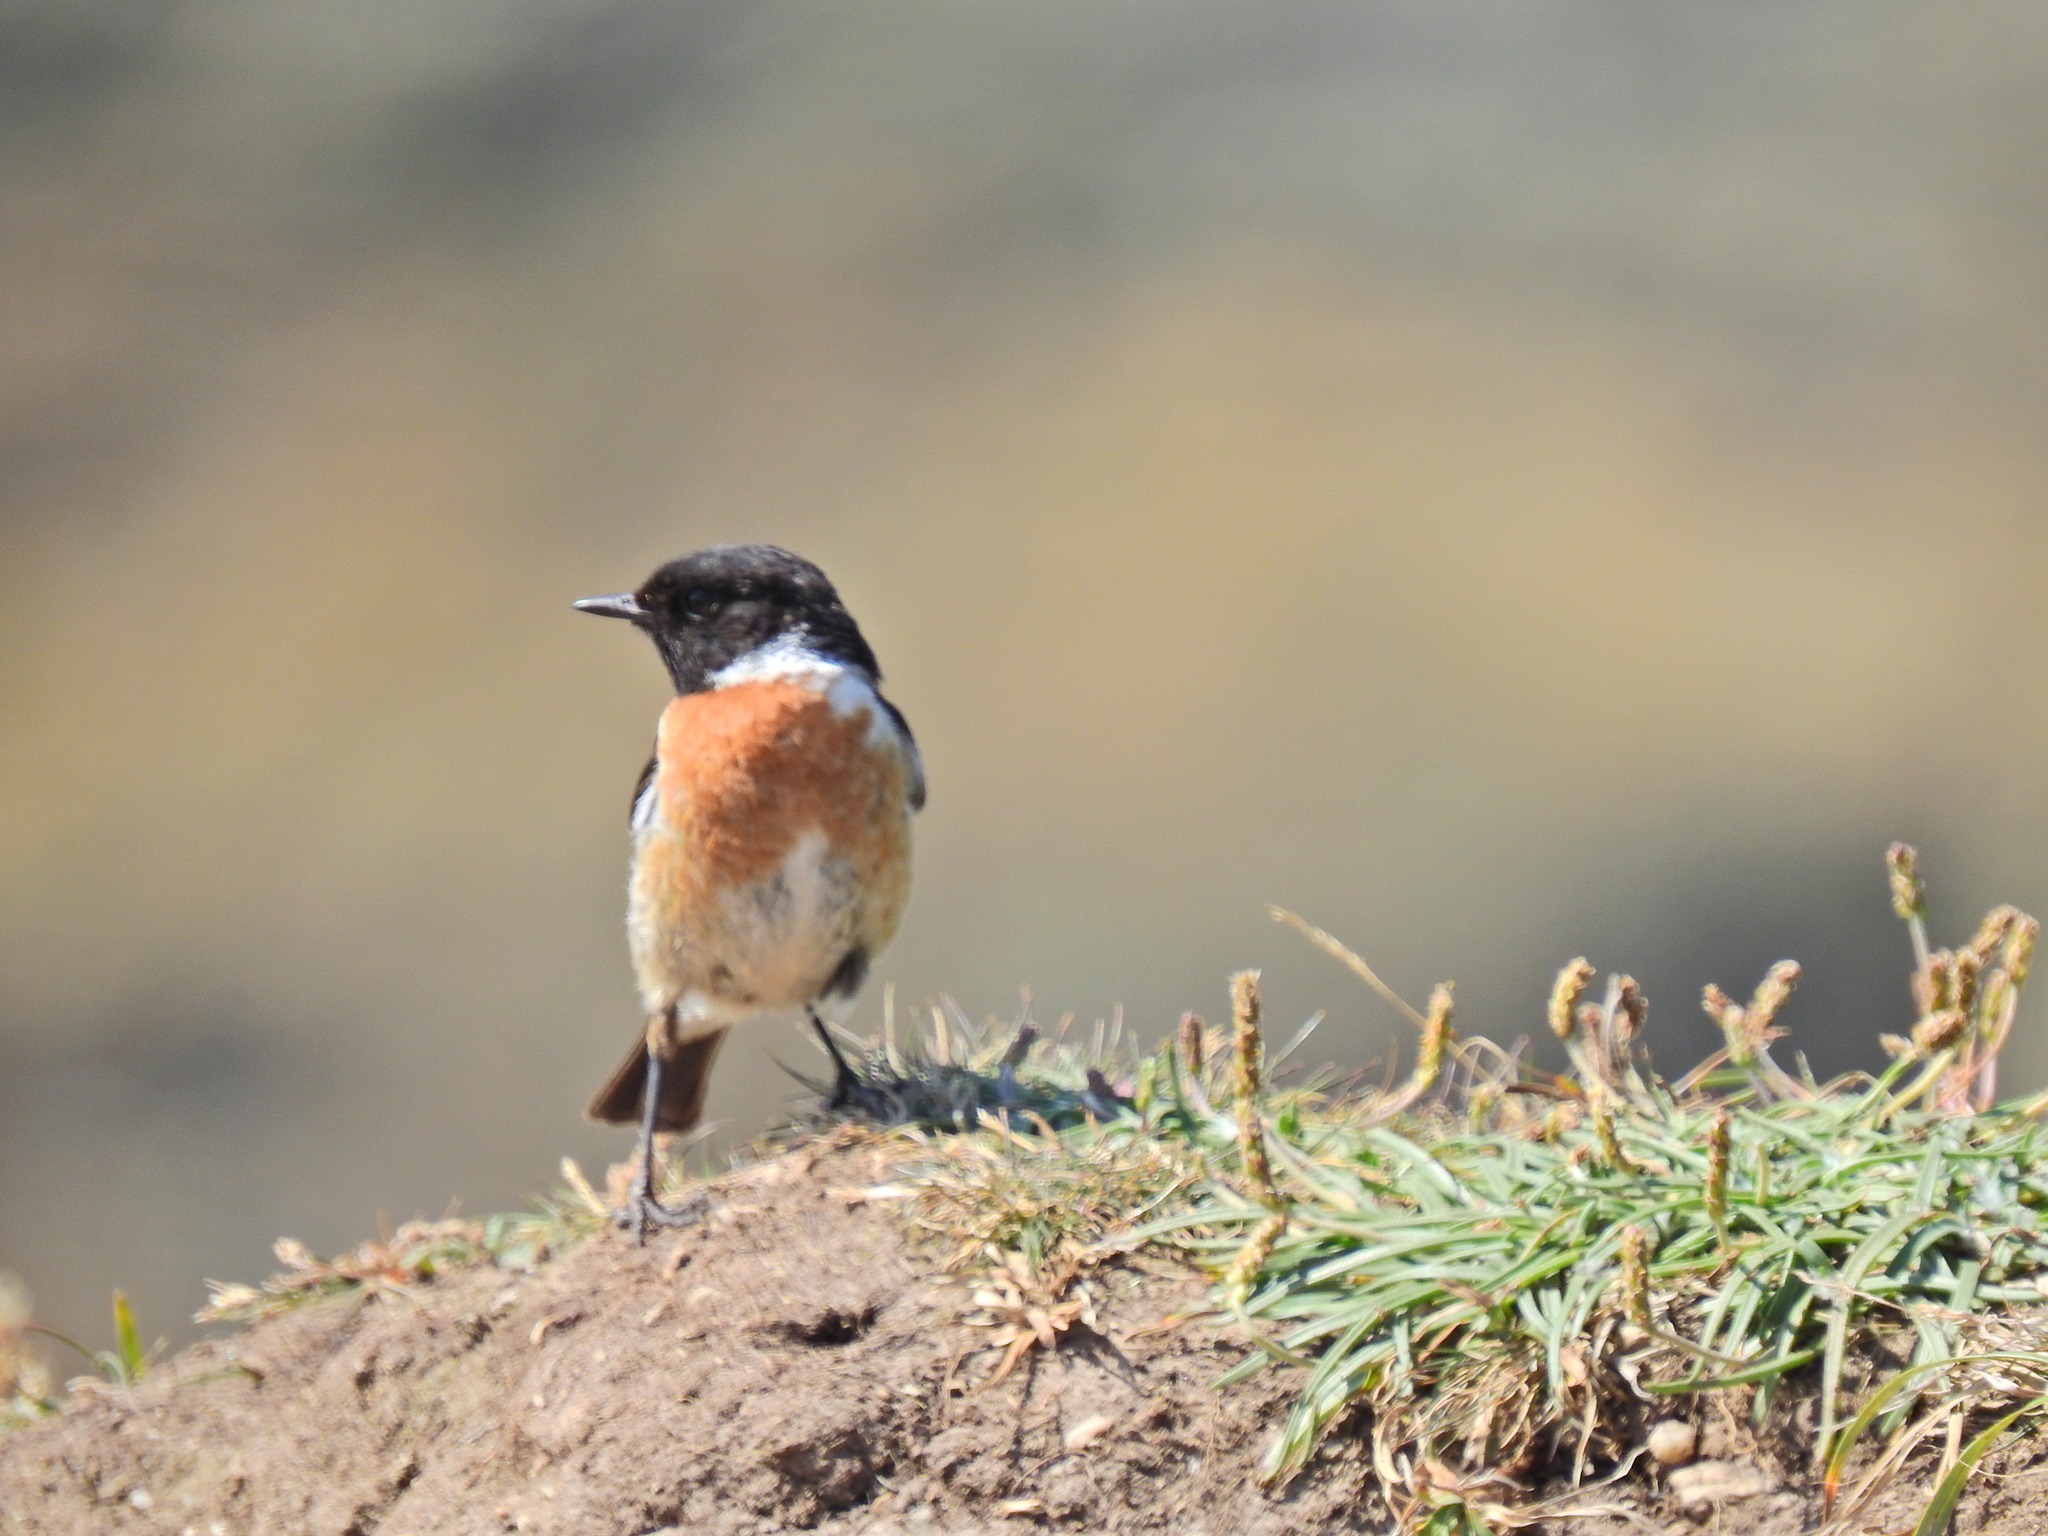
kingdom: Animalia
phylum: Chordata
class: Aves
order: Passeriformes
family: Muscicapidae
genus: Saxicola
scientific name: Saxicola rubicola
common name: European stonechat
